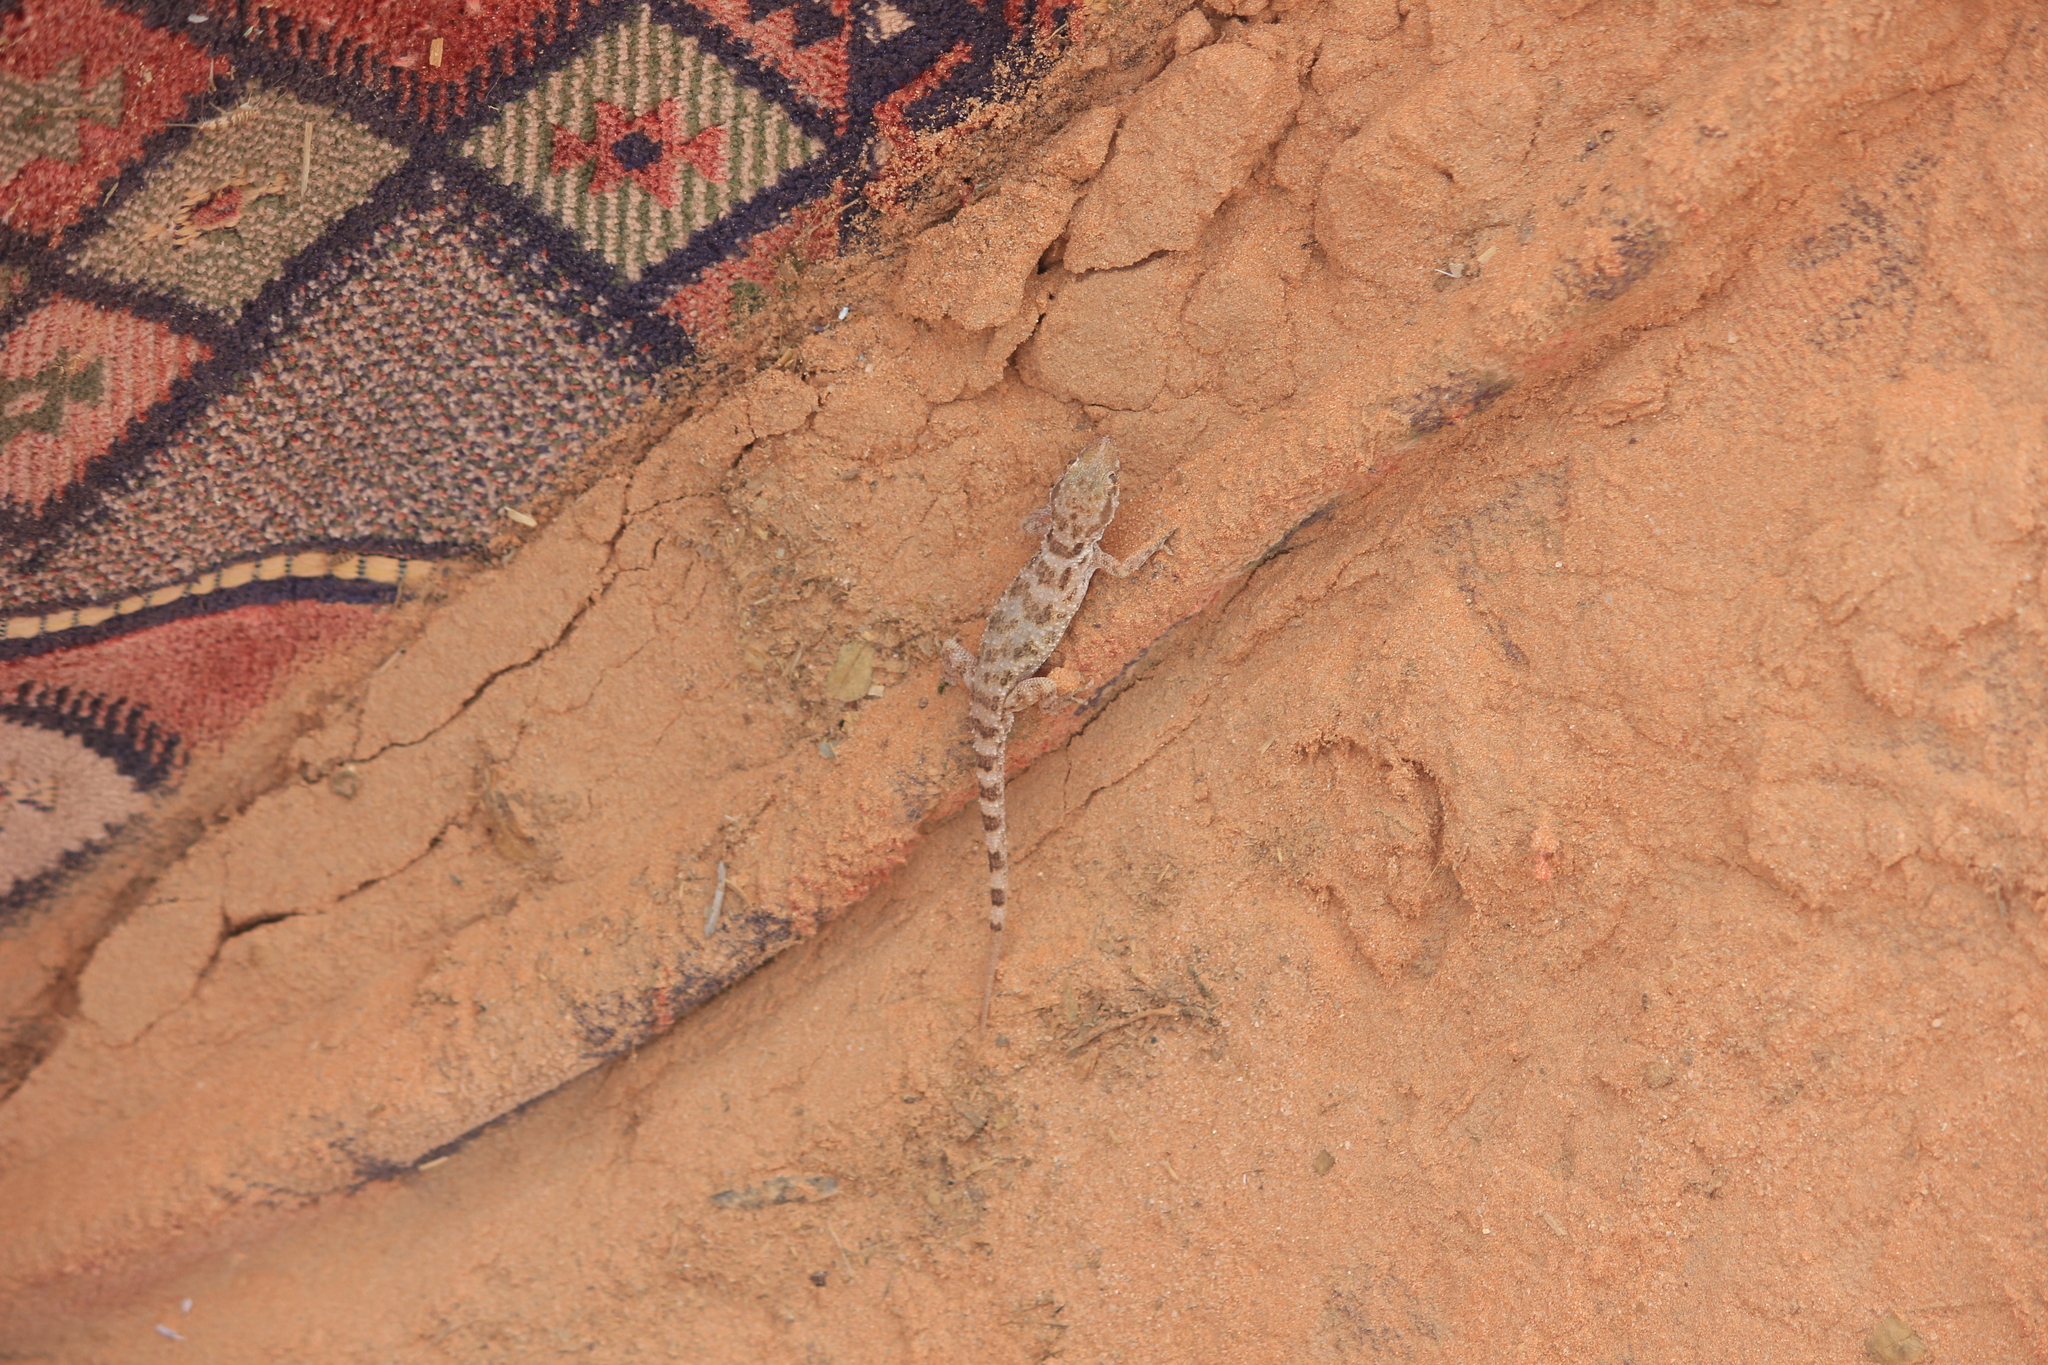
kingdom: Animalia
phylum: Chordata
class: Squamata
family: Gekkonidae
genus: Bunopus
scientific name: Bunopus tuberculatus
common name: Southern tuberculated gecko
